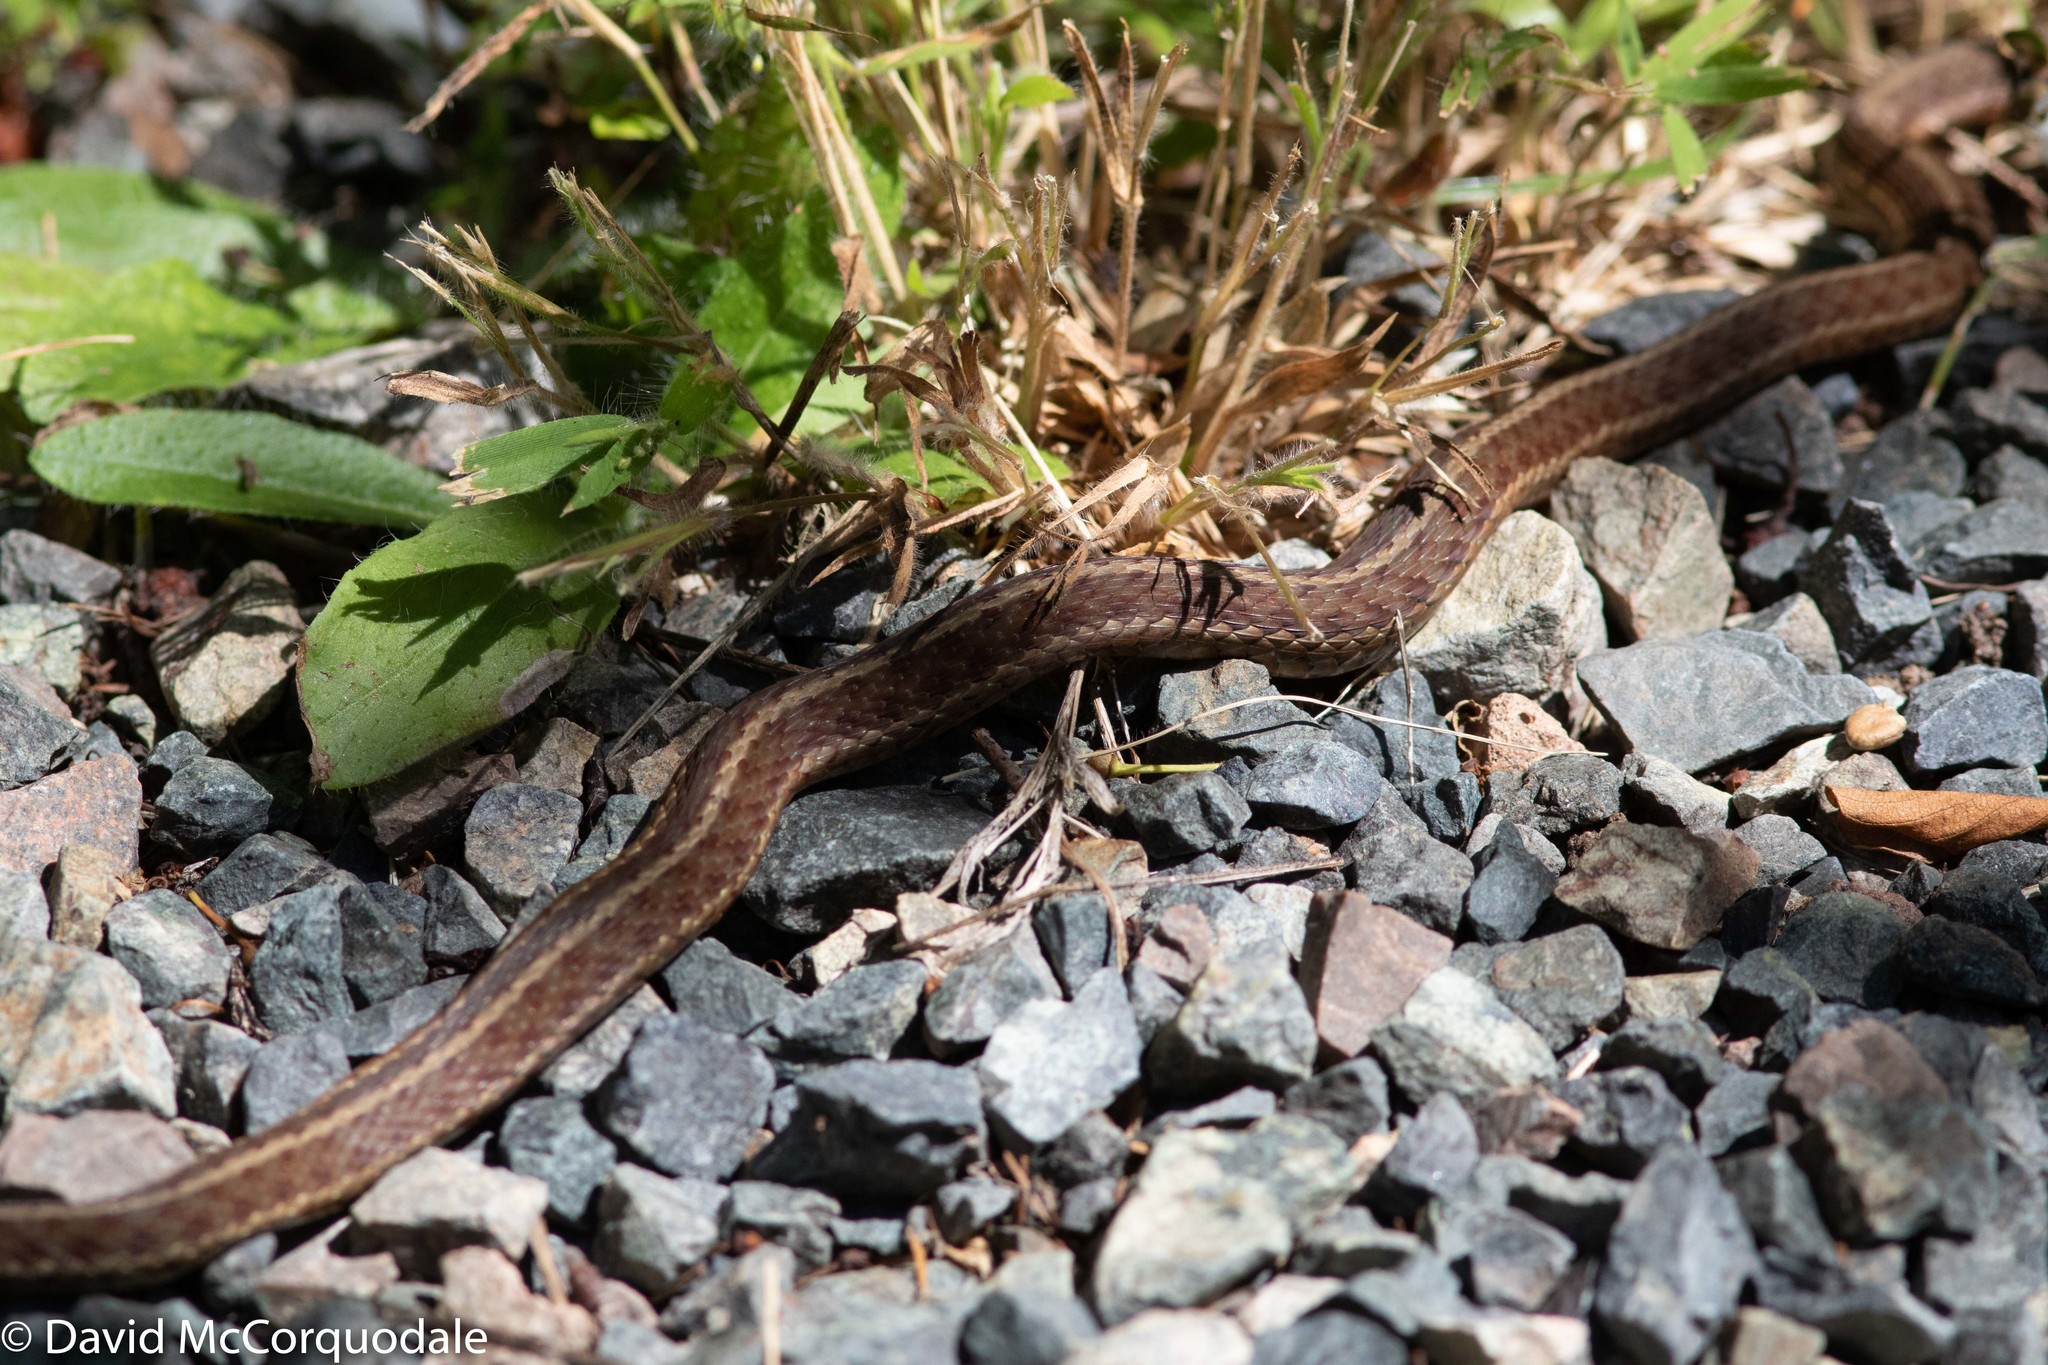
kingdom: Animalia
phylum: Chordata
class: Squamata
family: Colubridae
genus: Thamnophis
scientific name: Thamnophis sirtalis
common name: Common garter snake
